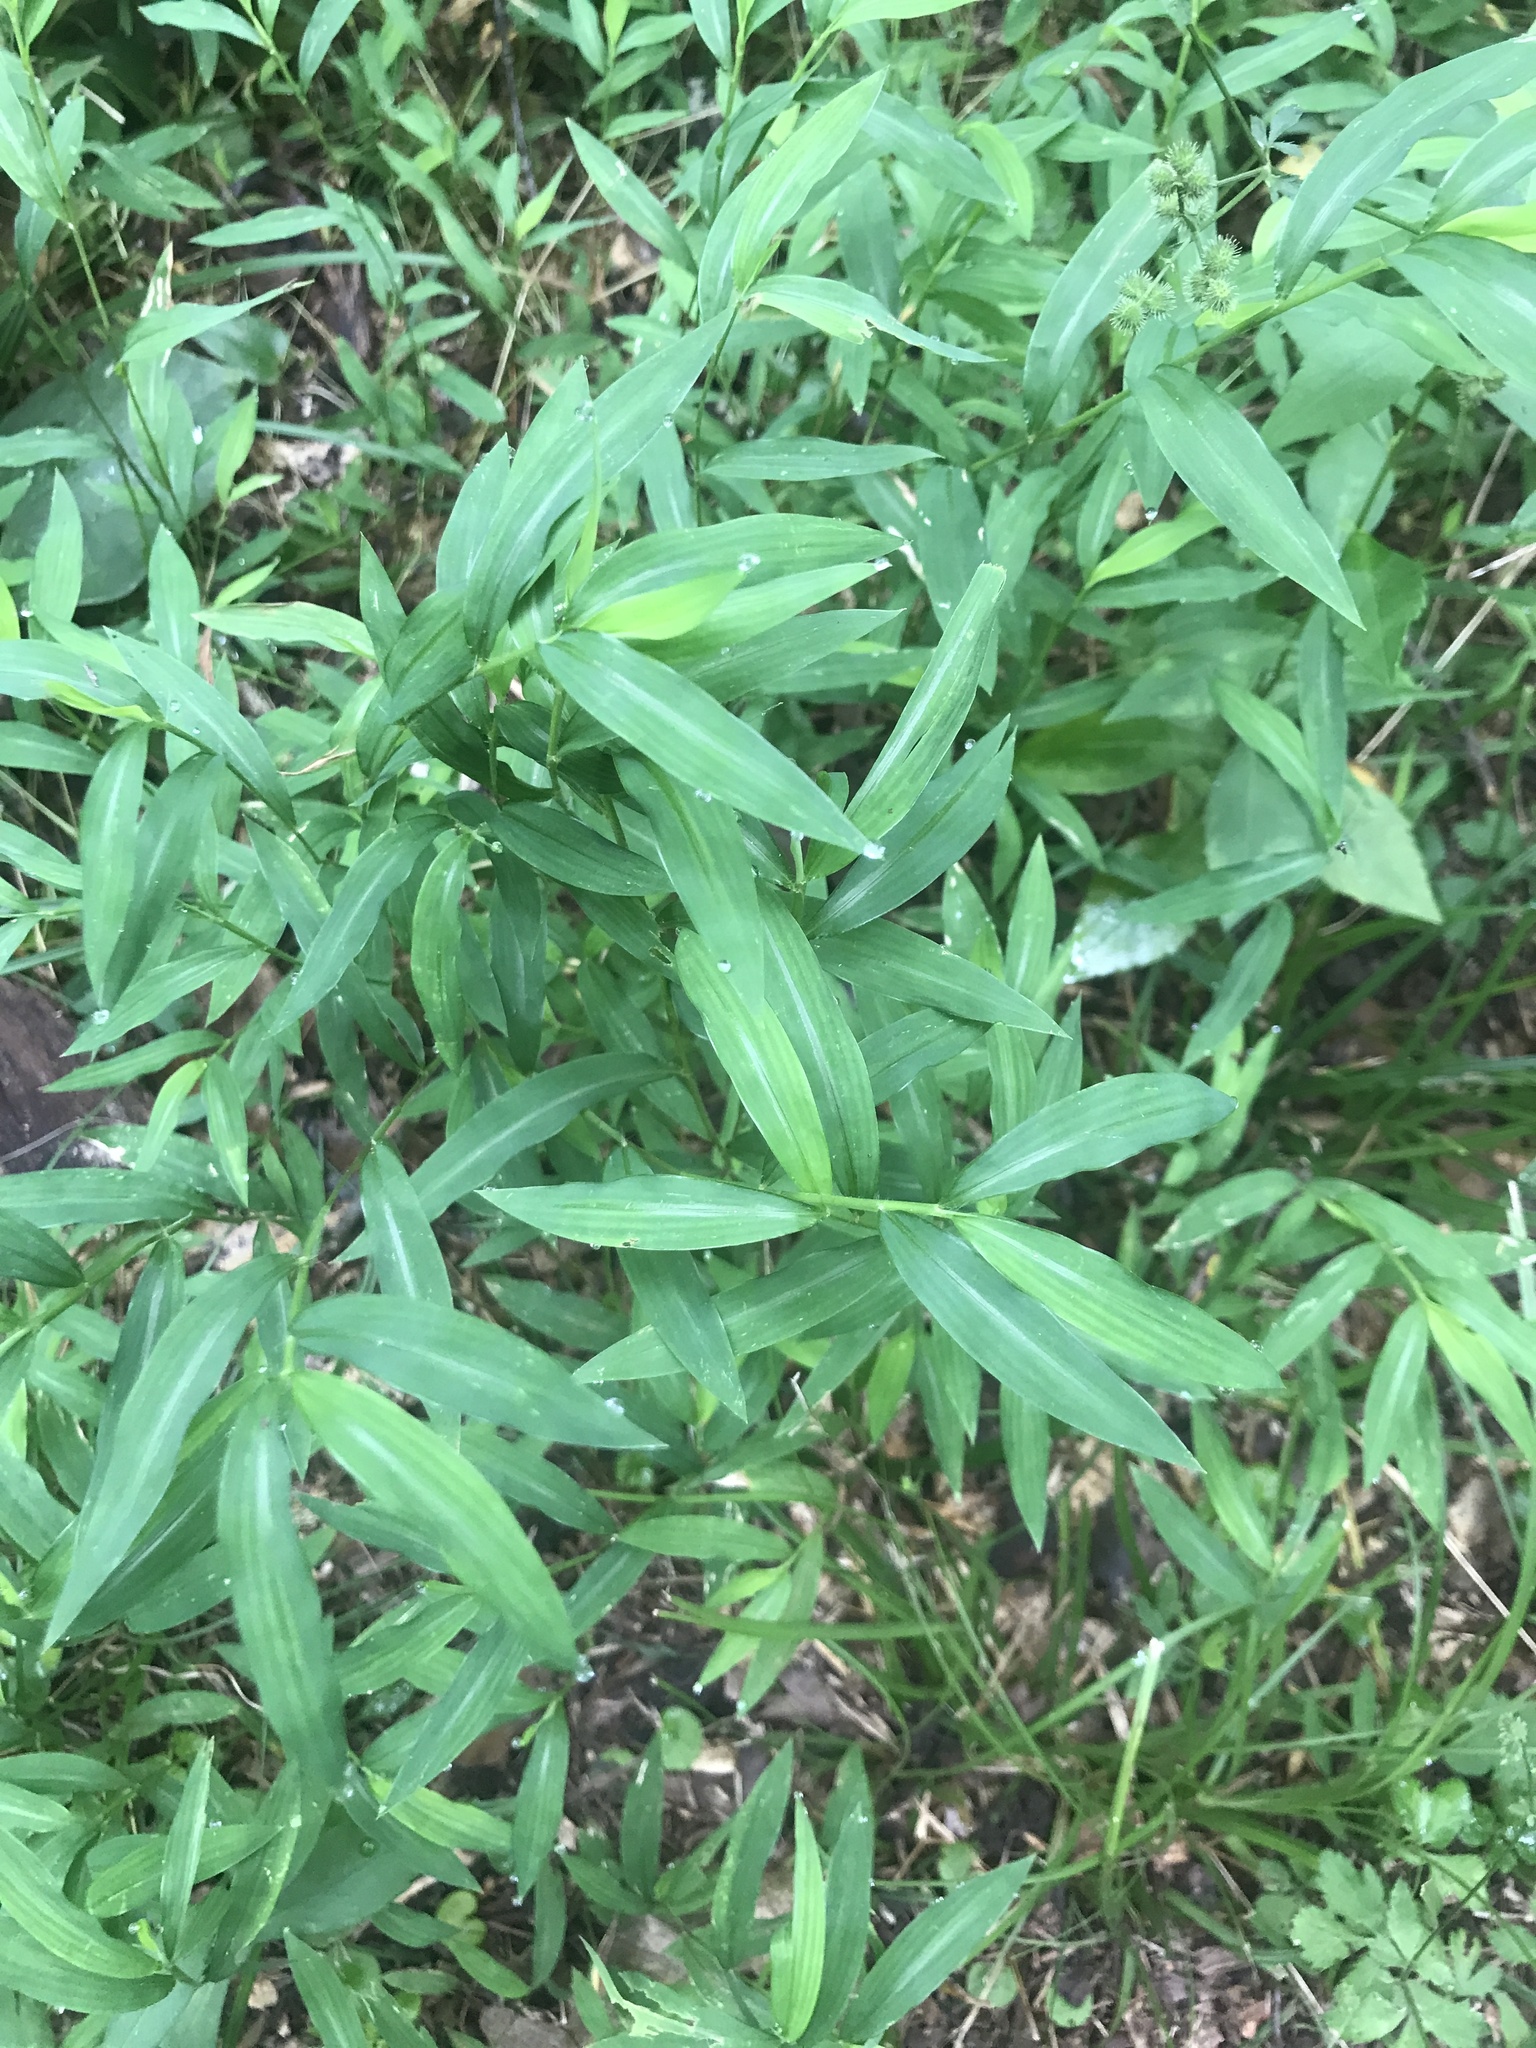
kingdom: Plantae
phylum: Tracheophyta
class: Liliopsida
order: Poales
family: Poaceae
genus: Microstegium
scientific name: Microstegium vimineum
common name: Japanese stiltgrass
